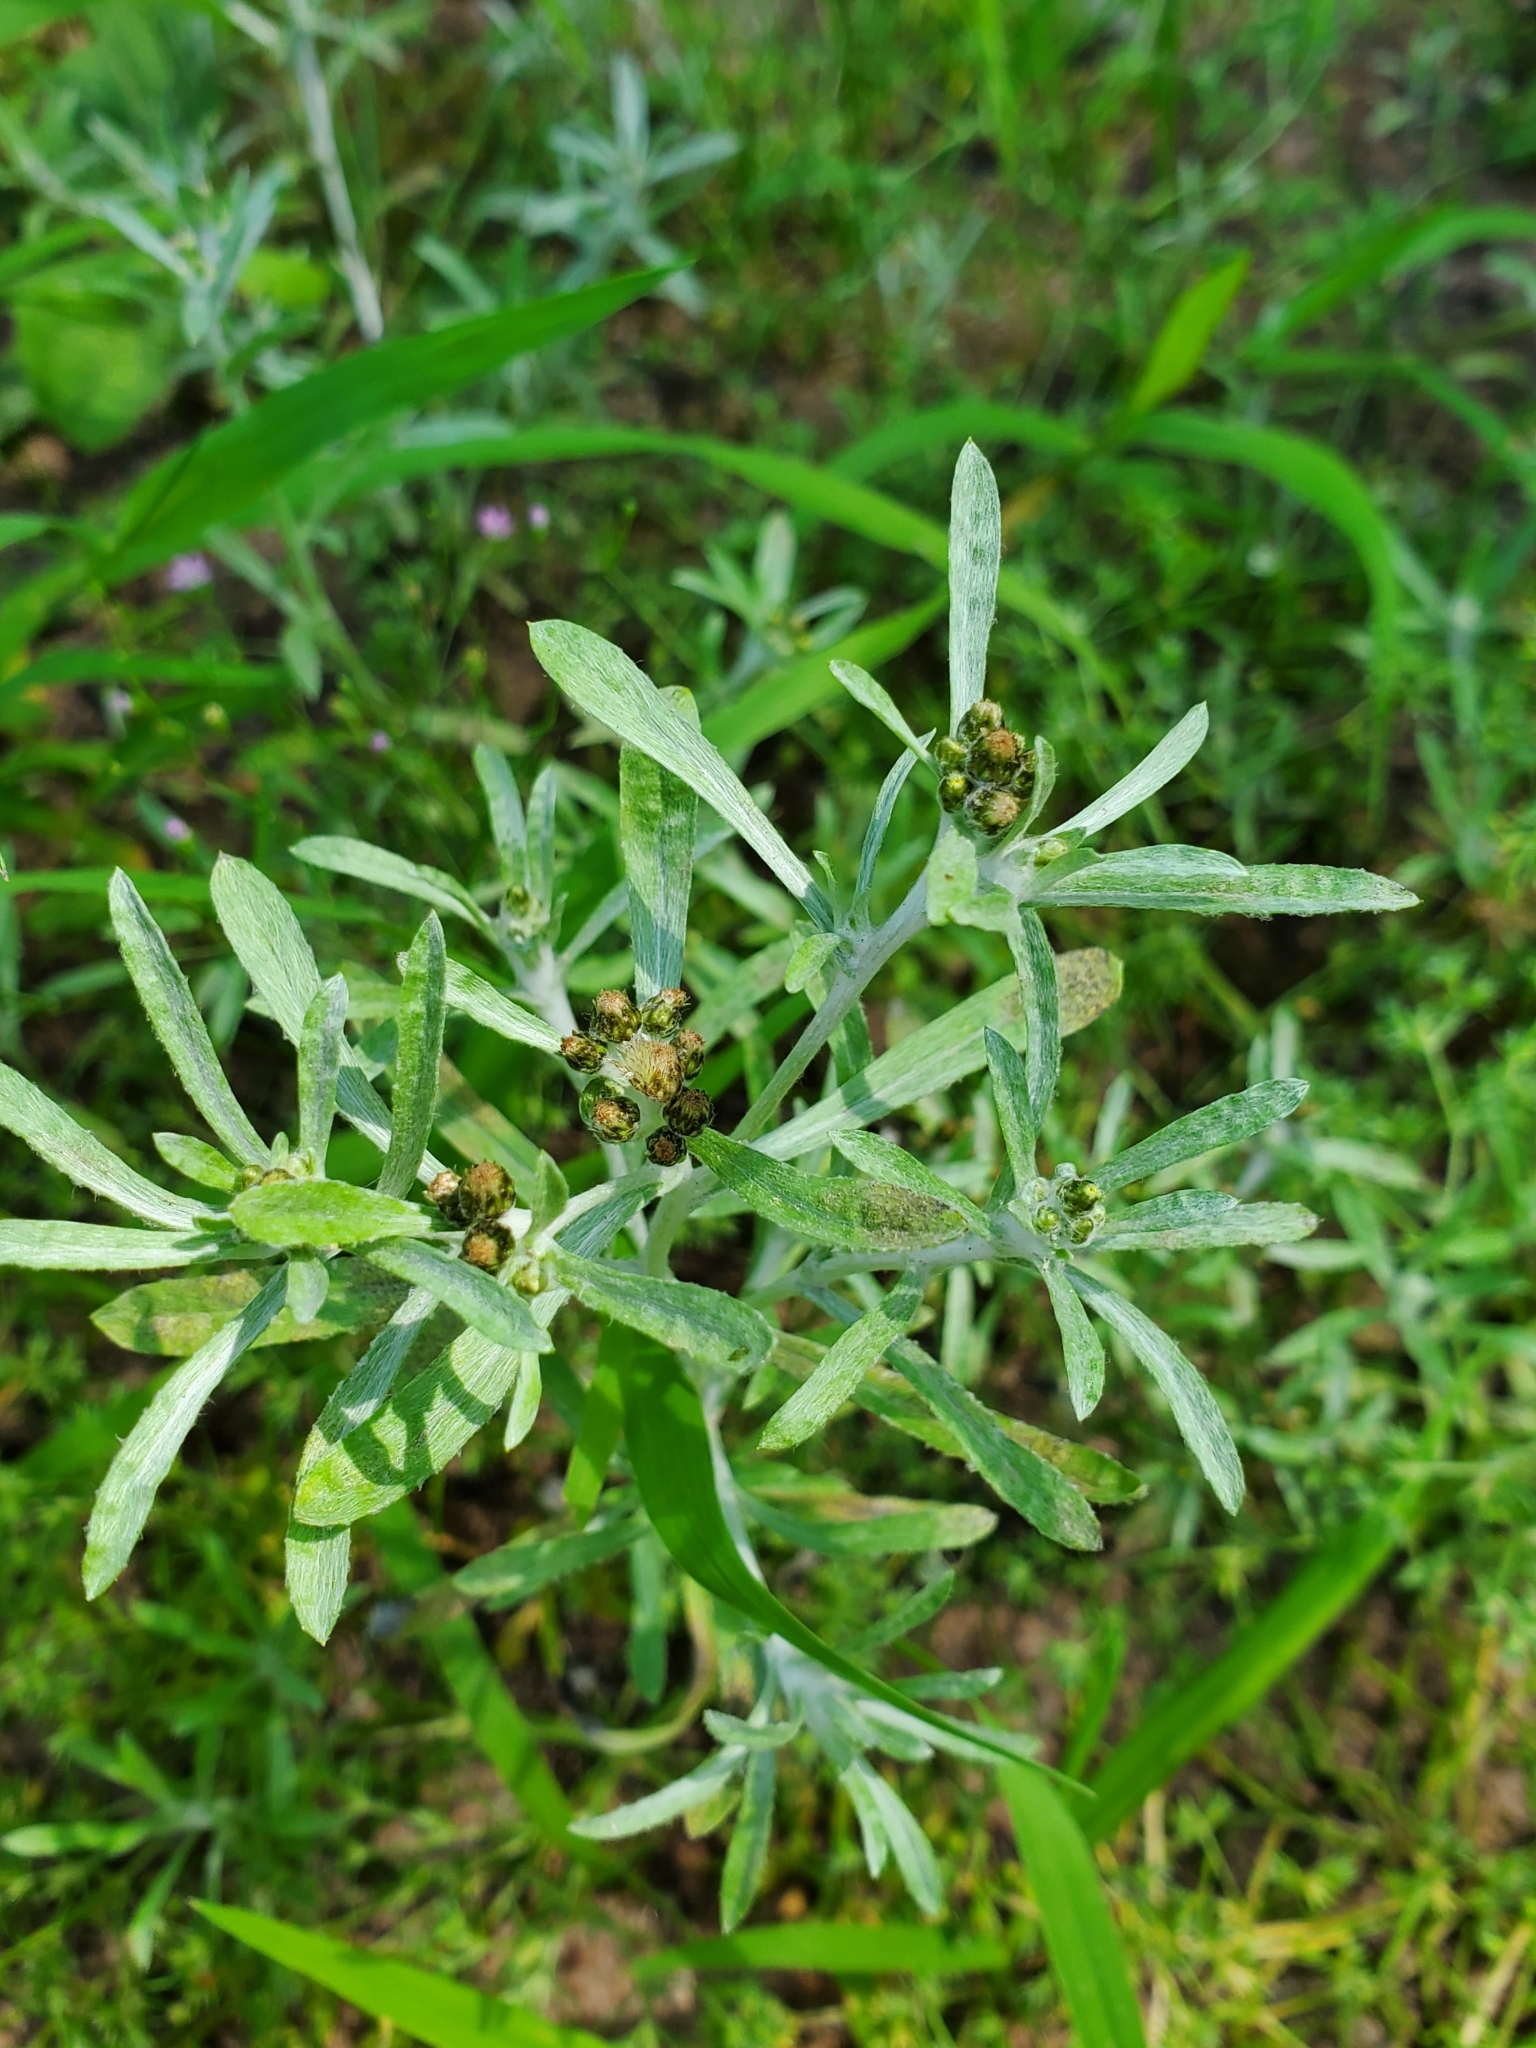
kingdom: Plantae
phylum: Tracheophyta
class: Magnoliopsida
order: Asterales
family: Asteraceae
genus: Gnaphalium
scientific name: Gnaphalium uliginosum
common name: Marsh cudweed
